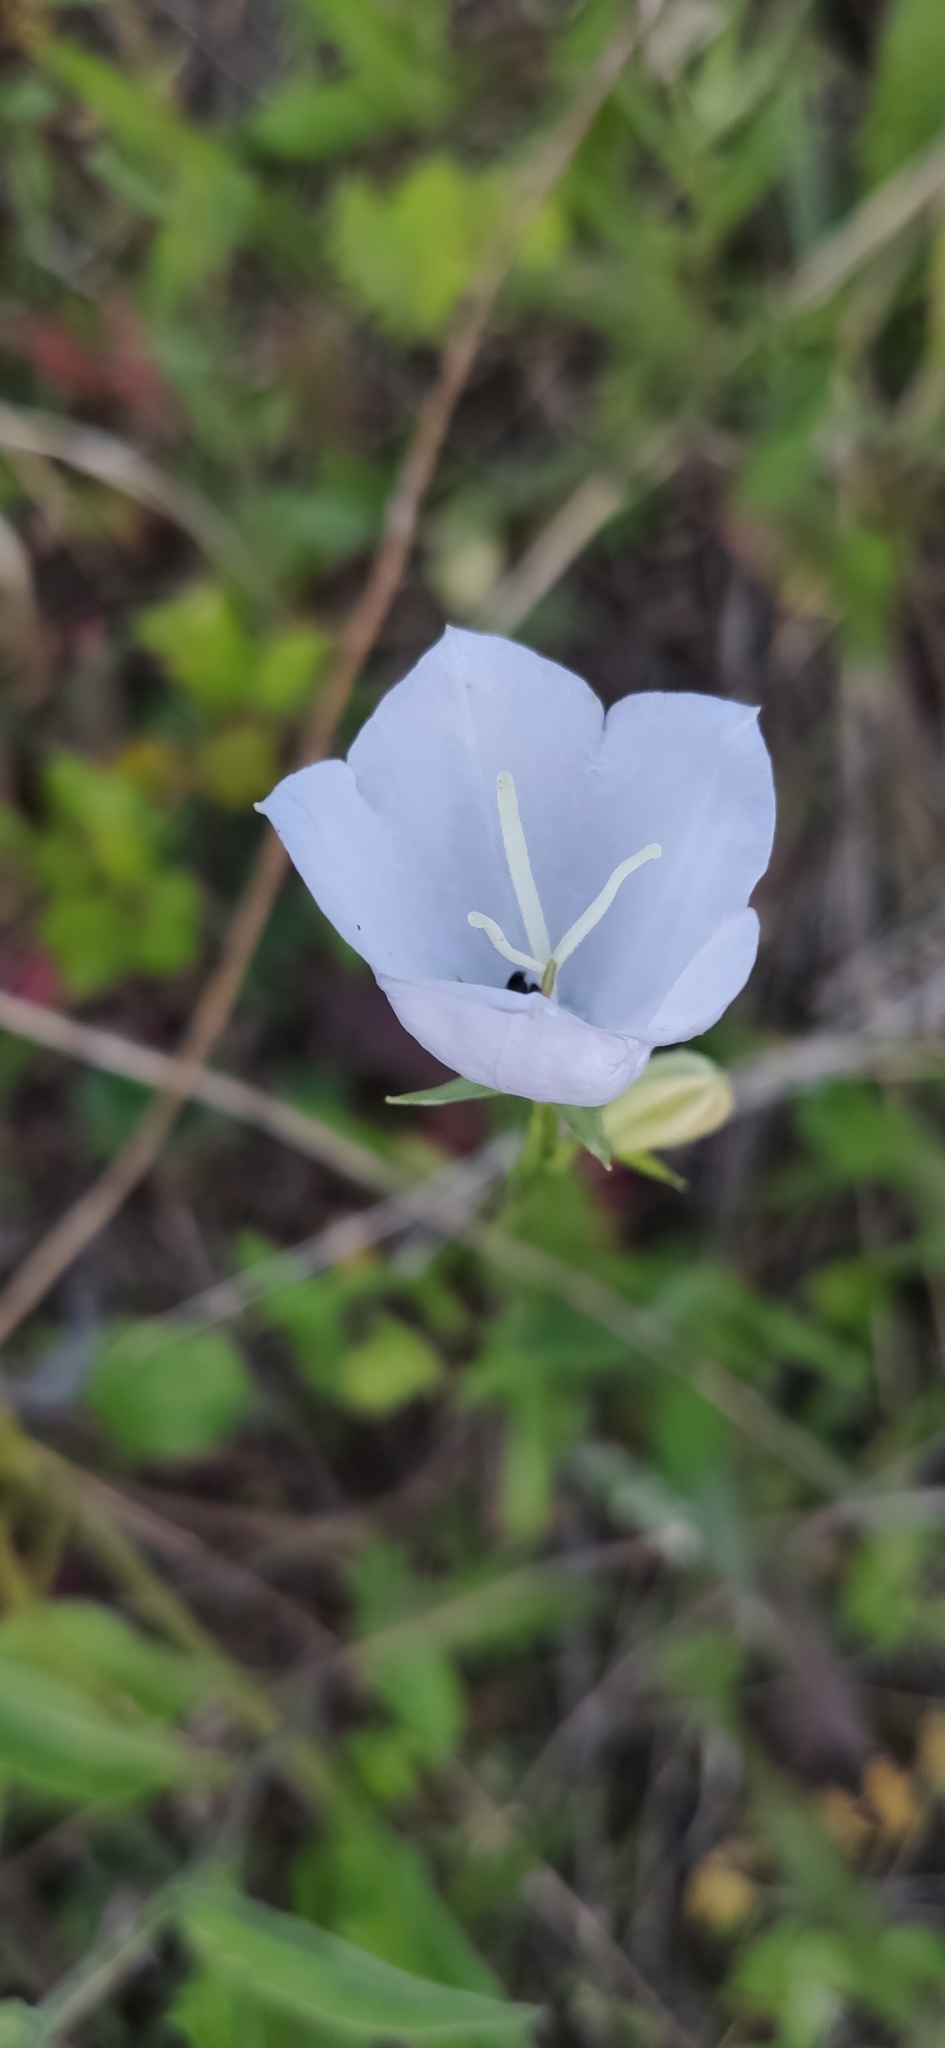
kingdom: Plantae
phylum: Tracheophyta
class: Magnoliopsida
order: Asterales
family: Campanulaceae
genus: Campanula
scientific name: Campanula persicifolia
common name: Peach-leaved bellflower
